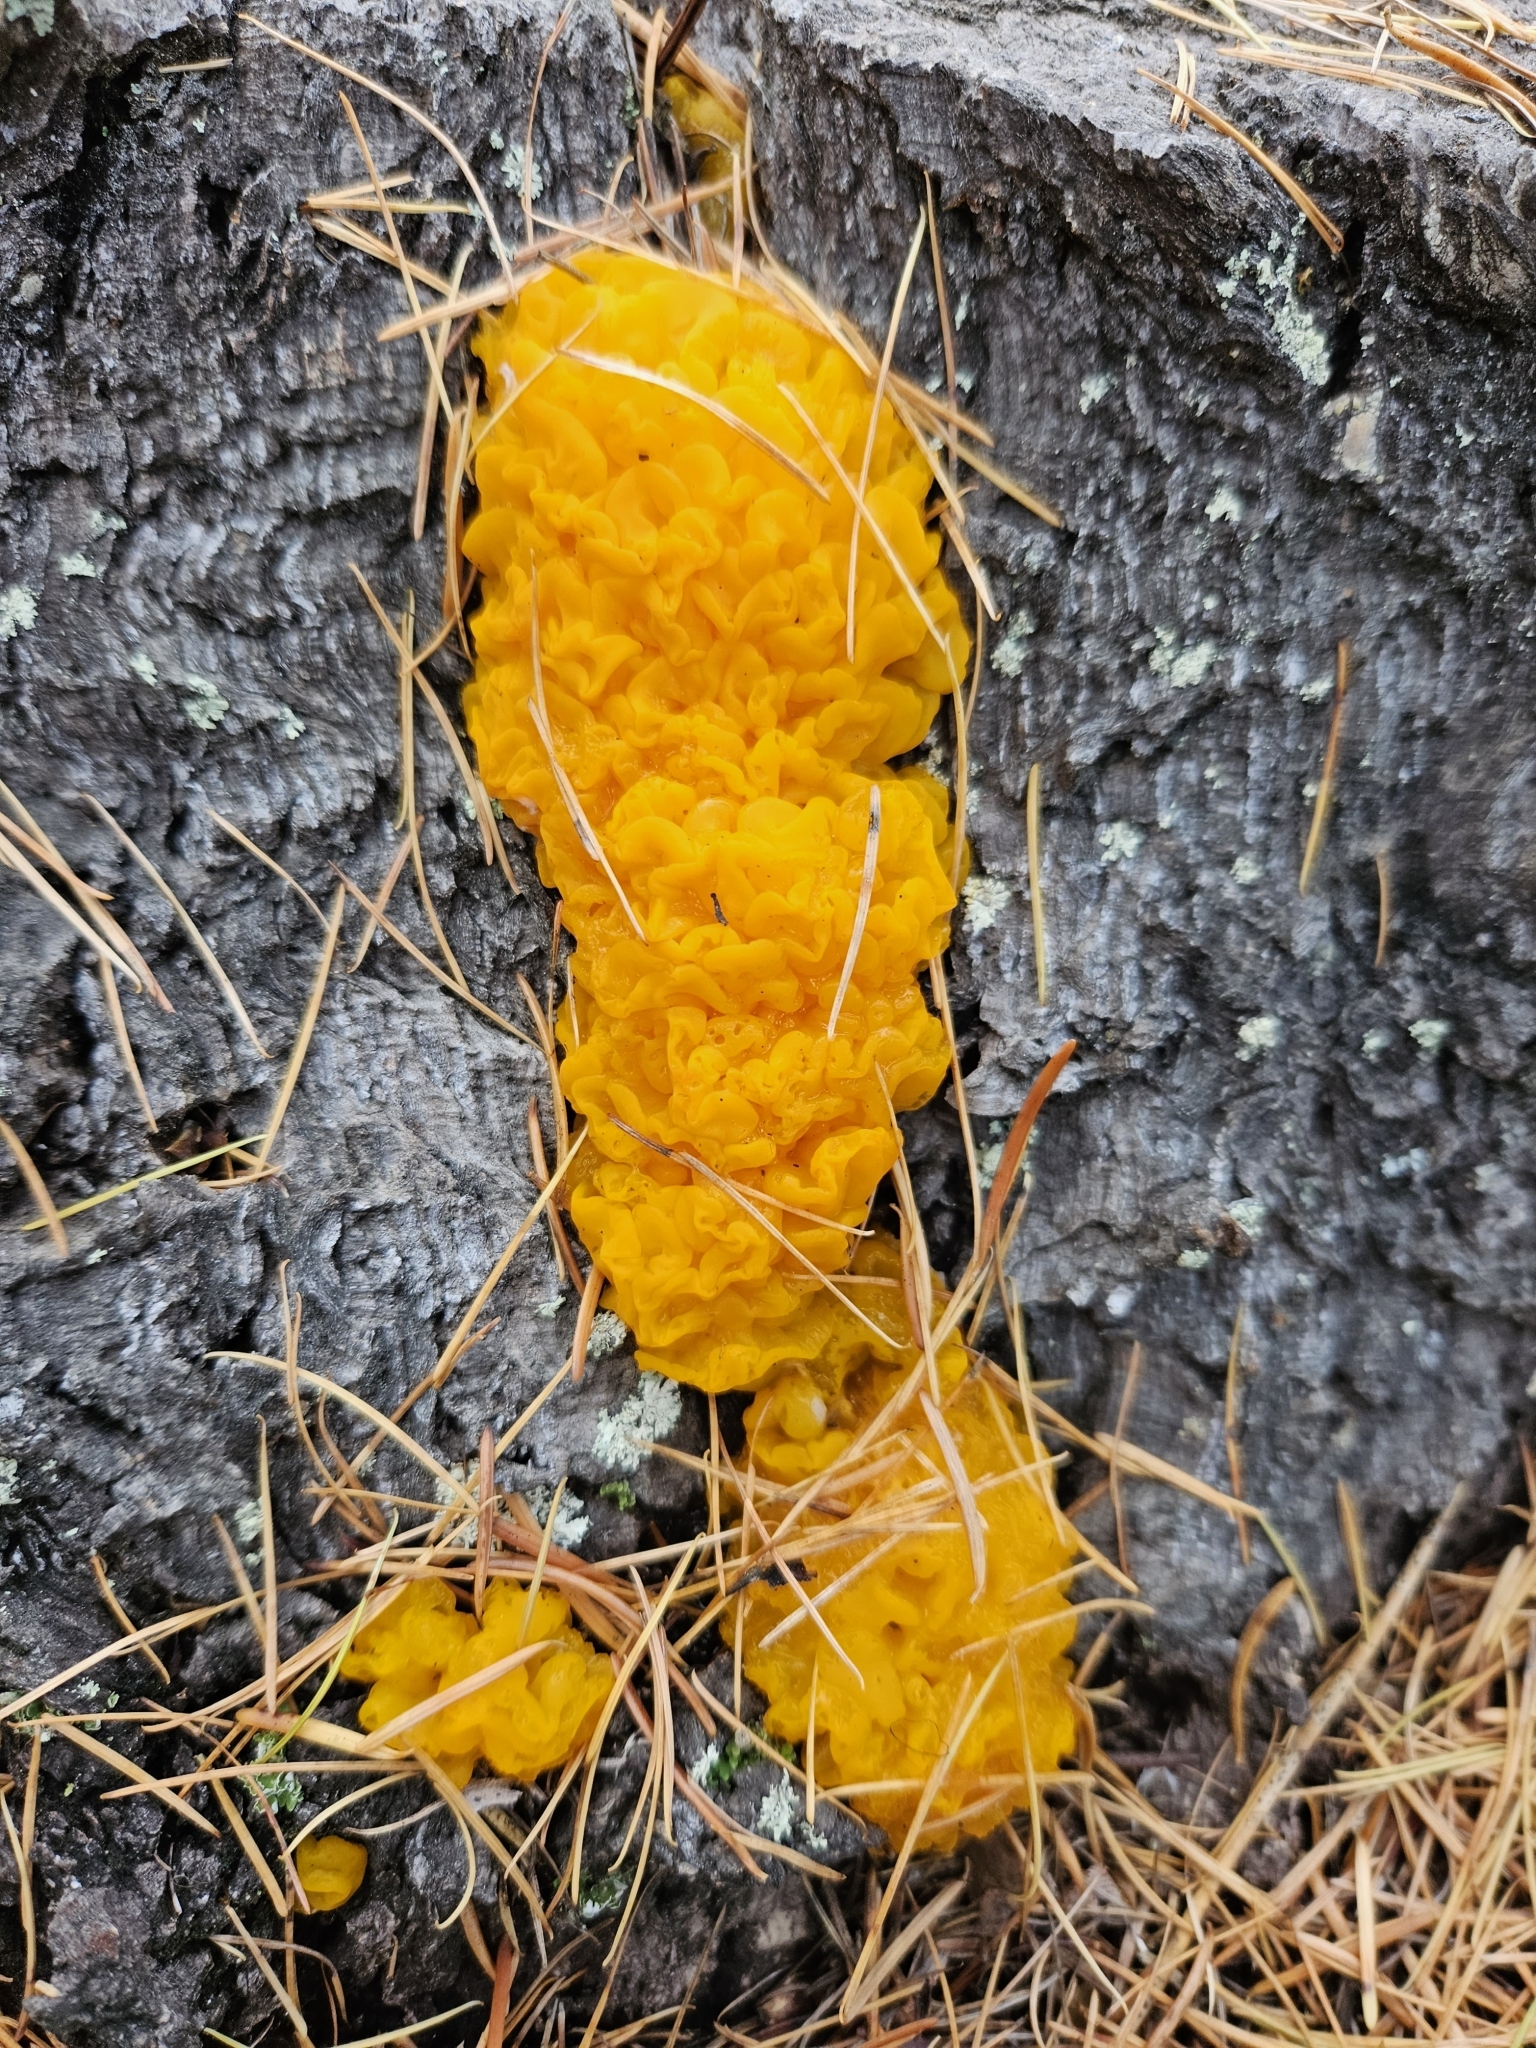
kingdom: Fungi
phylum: Basidiomycota
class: Dacrymycetes
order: Dacrymycetales
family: Dacrymycetaceae
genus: Dacrymyces
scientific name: Dacrymyces chrysospermus
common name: Orange jelly spot
